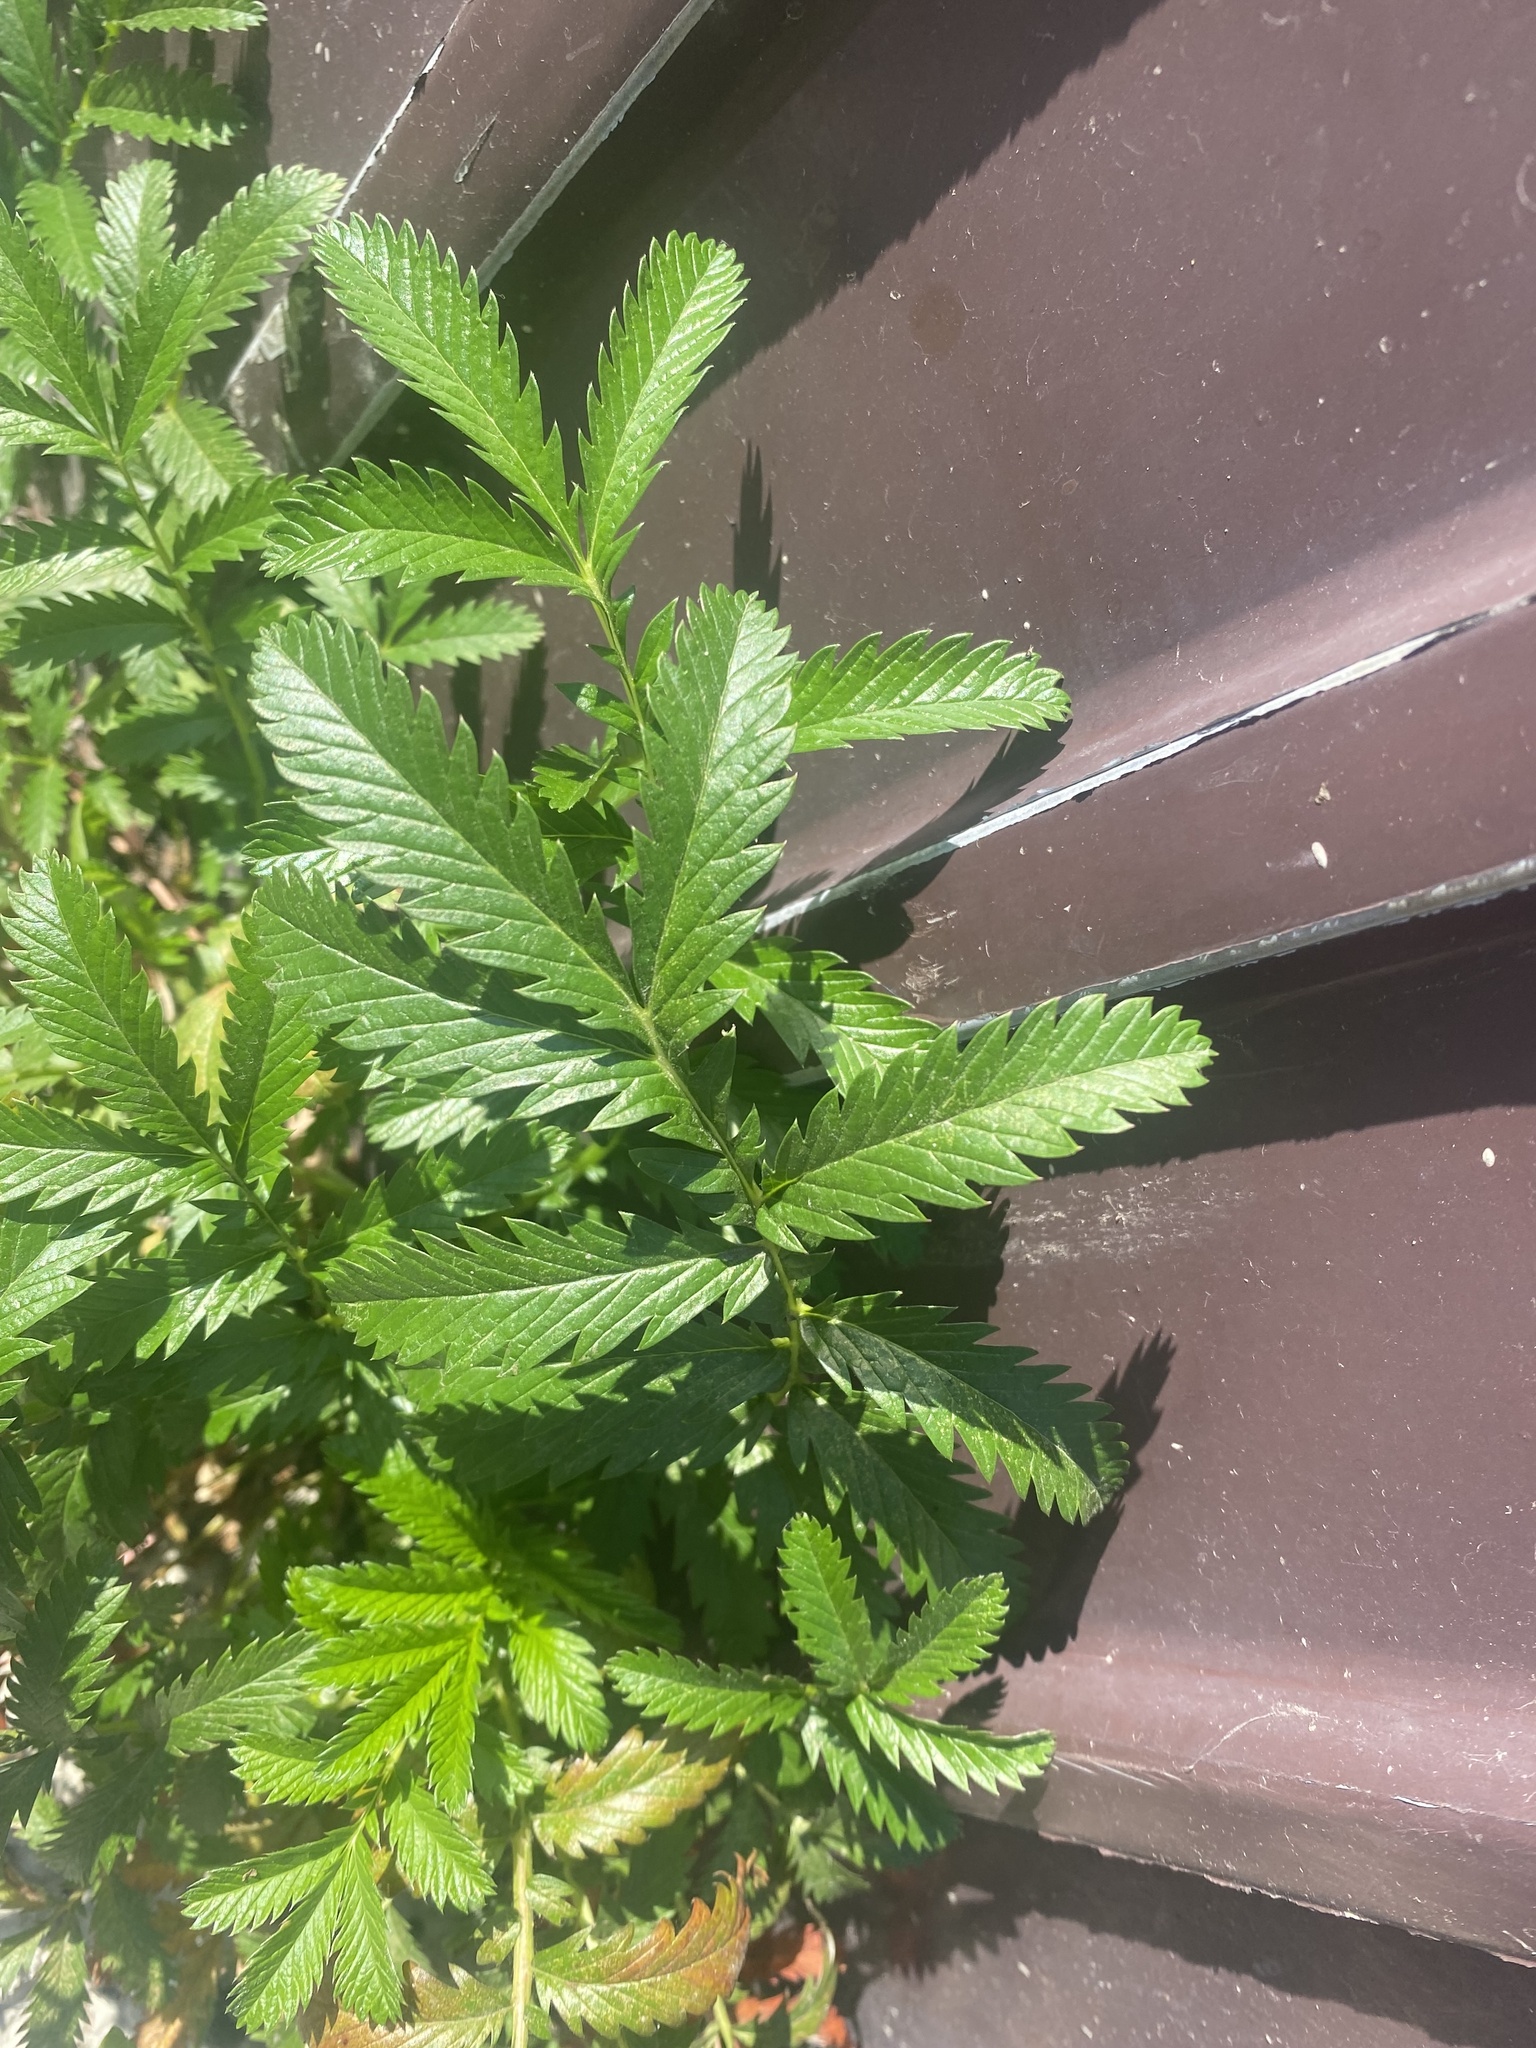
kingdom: Plantae
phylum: Tracheophyta
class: Magnoliopsida
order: Rosales
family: Rosaceae
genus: Argentina
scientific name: Argentina anserina
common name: Common silverweed
